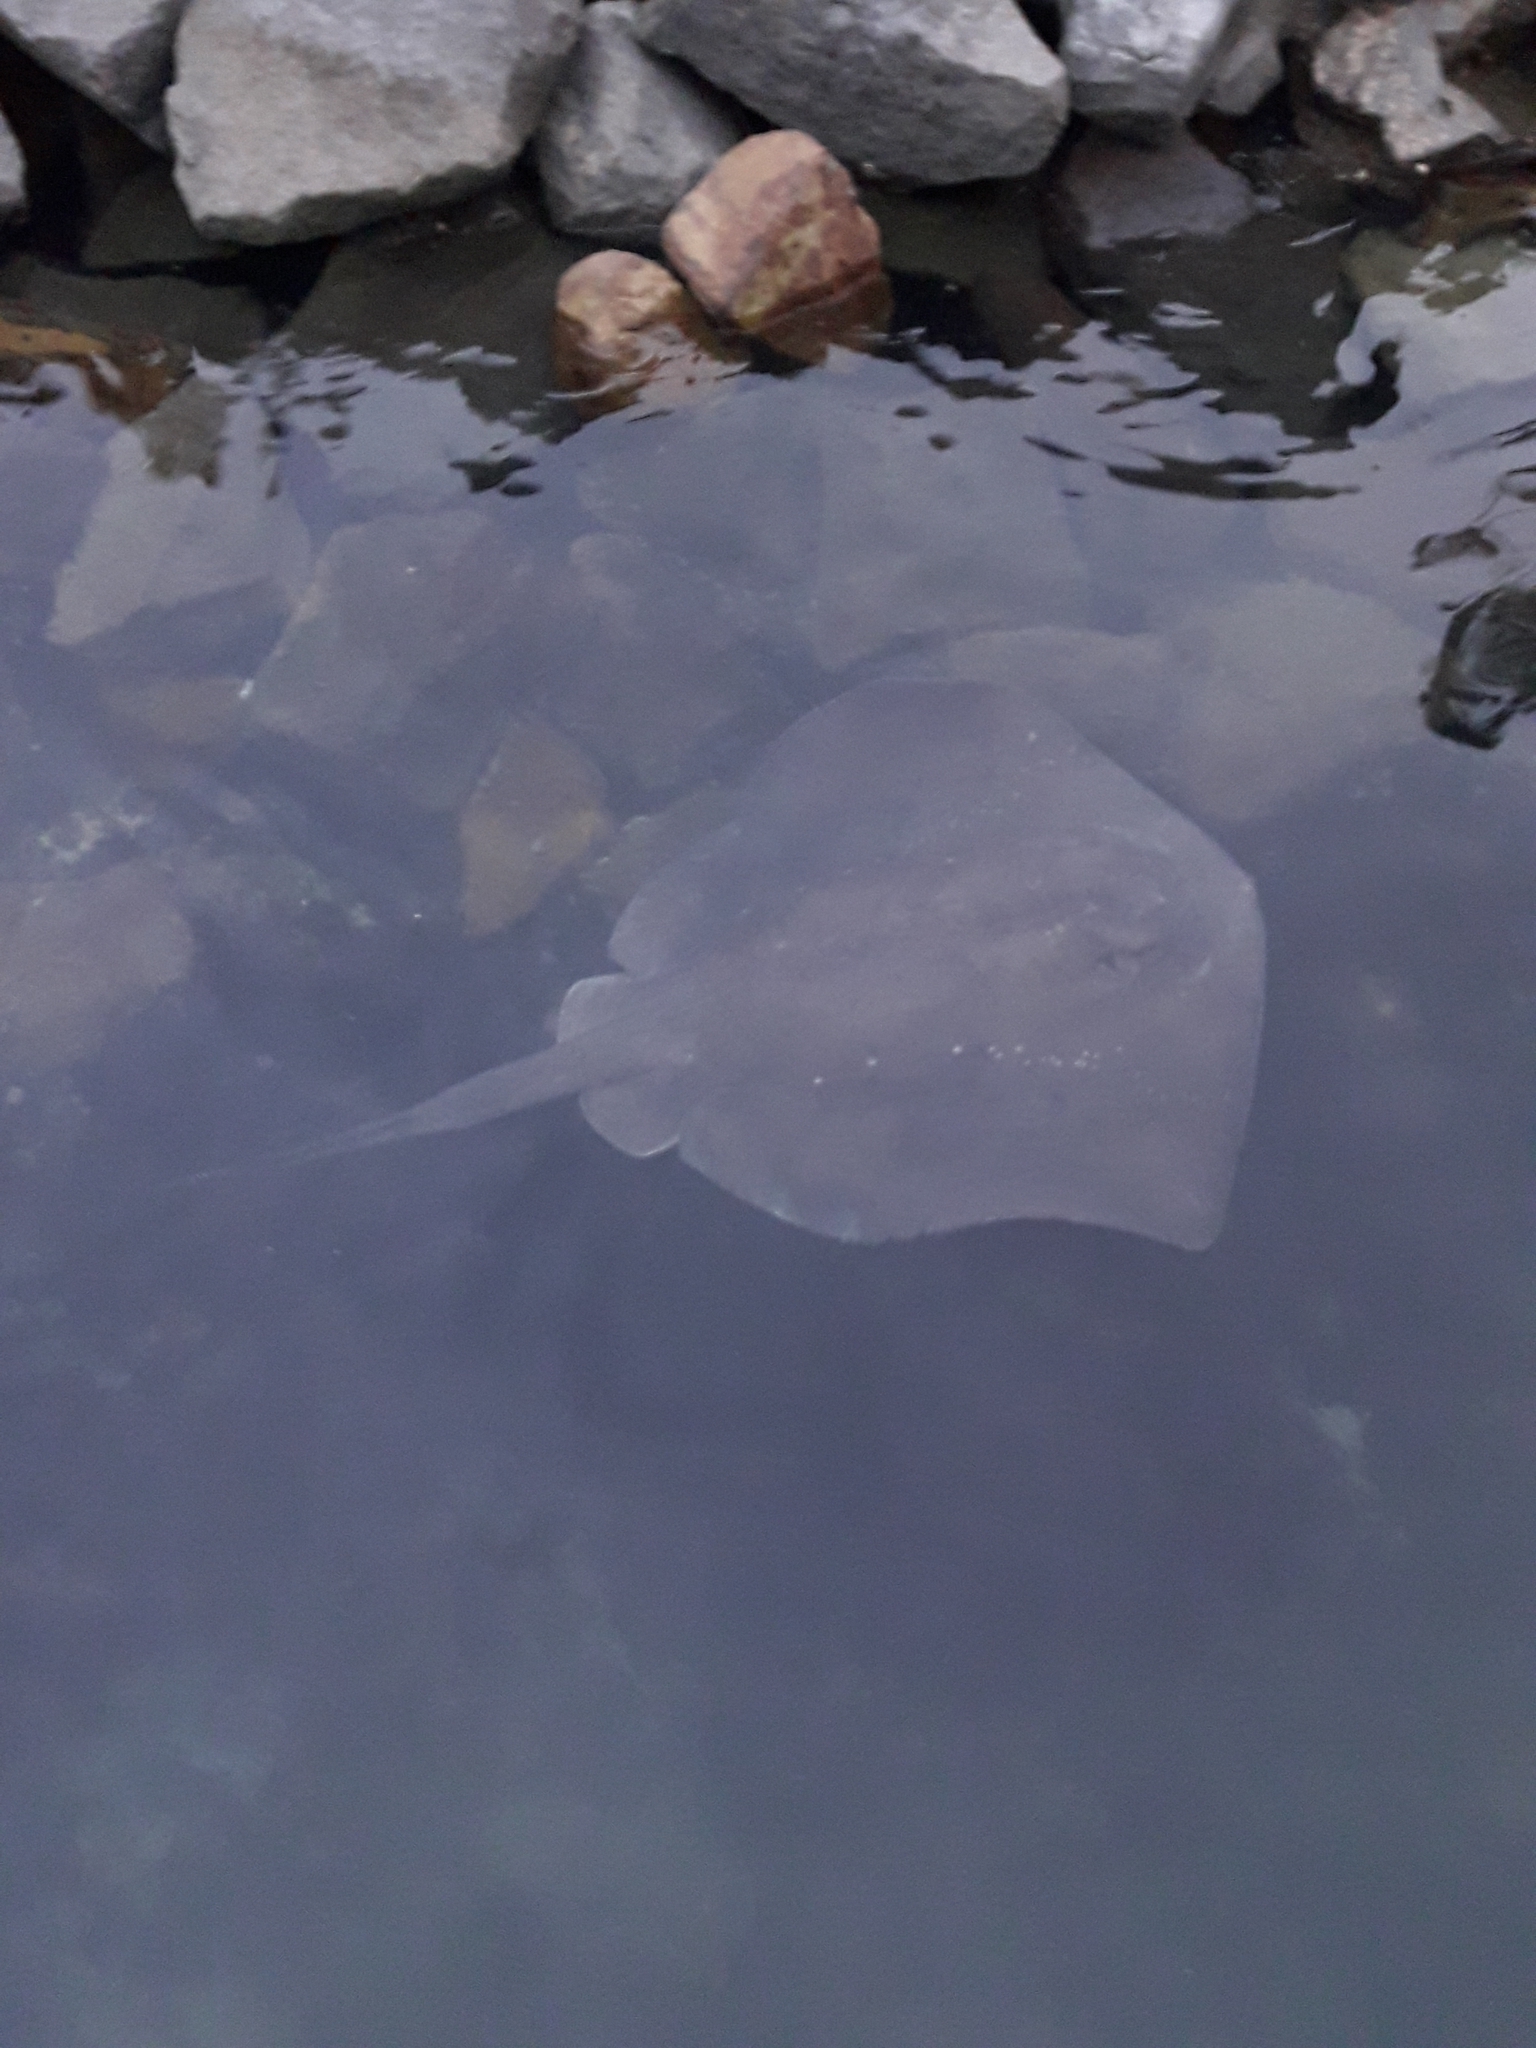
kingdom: Animalia
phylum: Chordata
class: Elasmobranchii
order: Myliobatiformes
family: Dasyatidae
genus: Bathytoshia
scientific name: Bathytoshia brevicaudata
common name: Short-tail stingray
